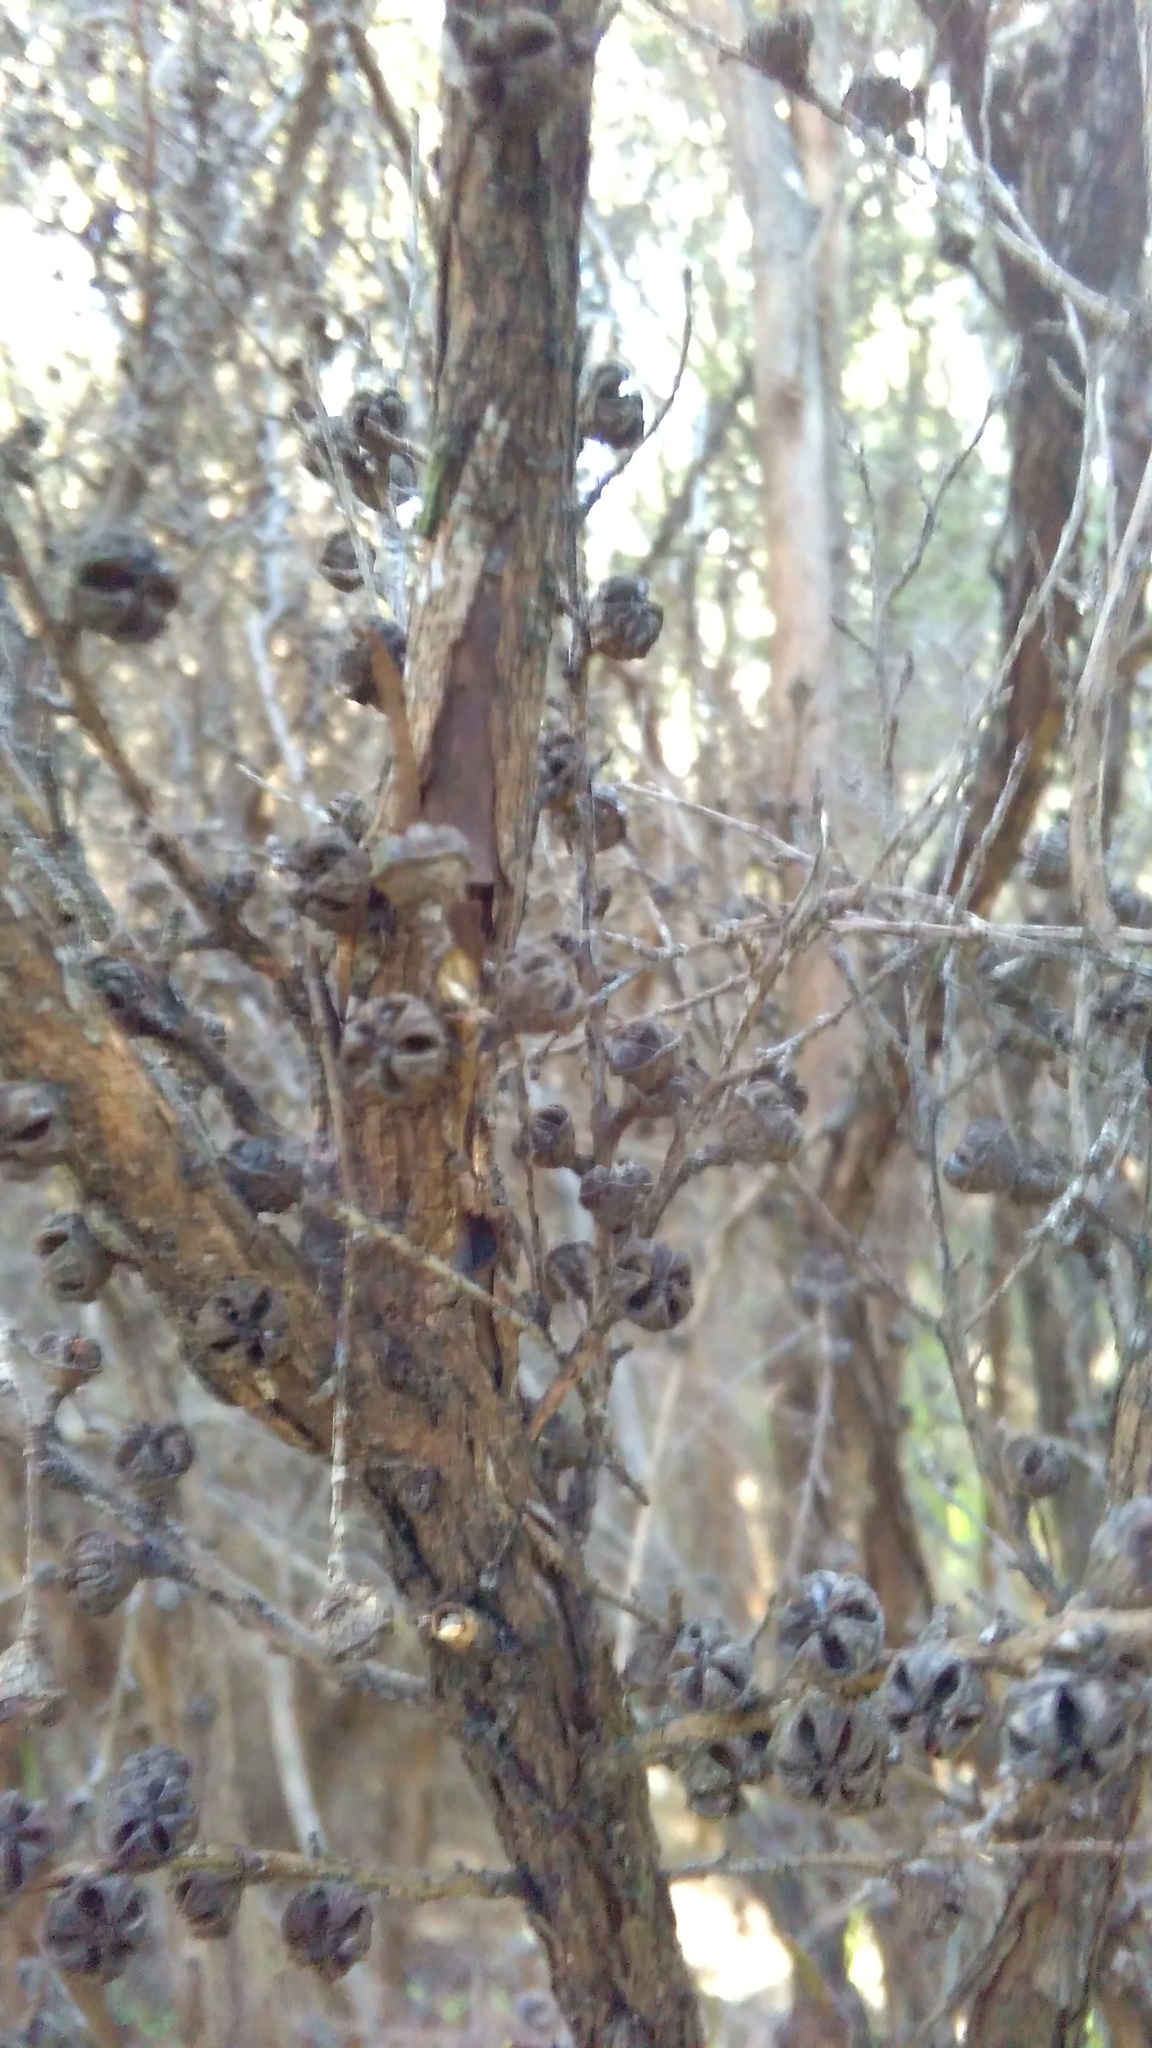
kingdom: Plantae
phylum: Tracheophyta
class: Magnoliopsida
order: Myrtales
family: Myrtaceae
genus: Leptospermum
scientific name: Leptospermum scoparium
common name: Broom tea-tree
